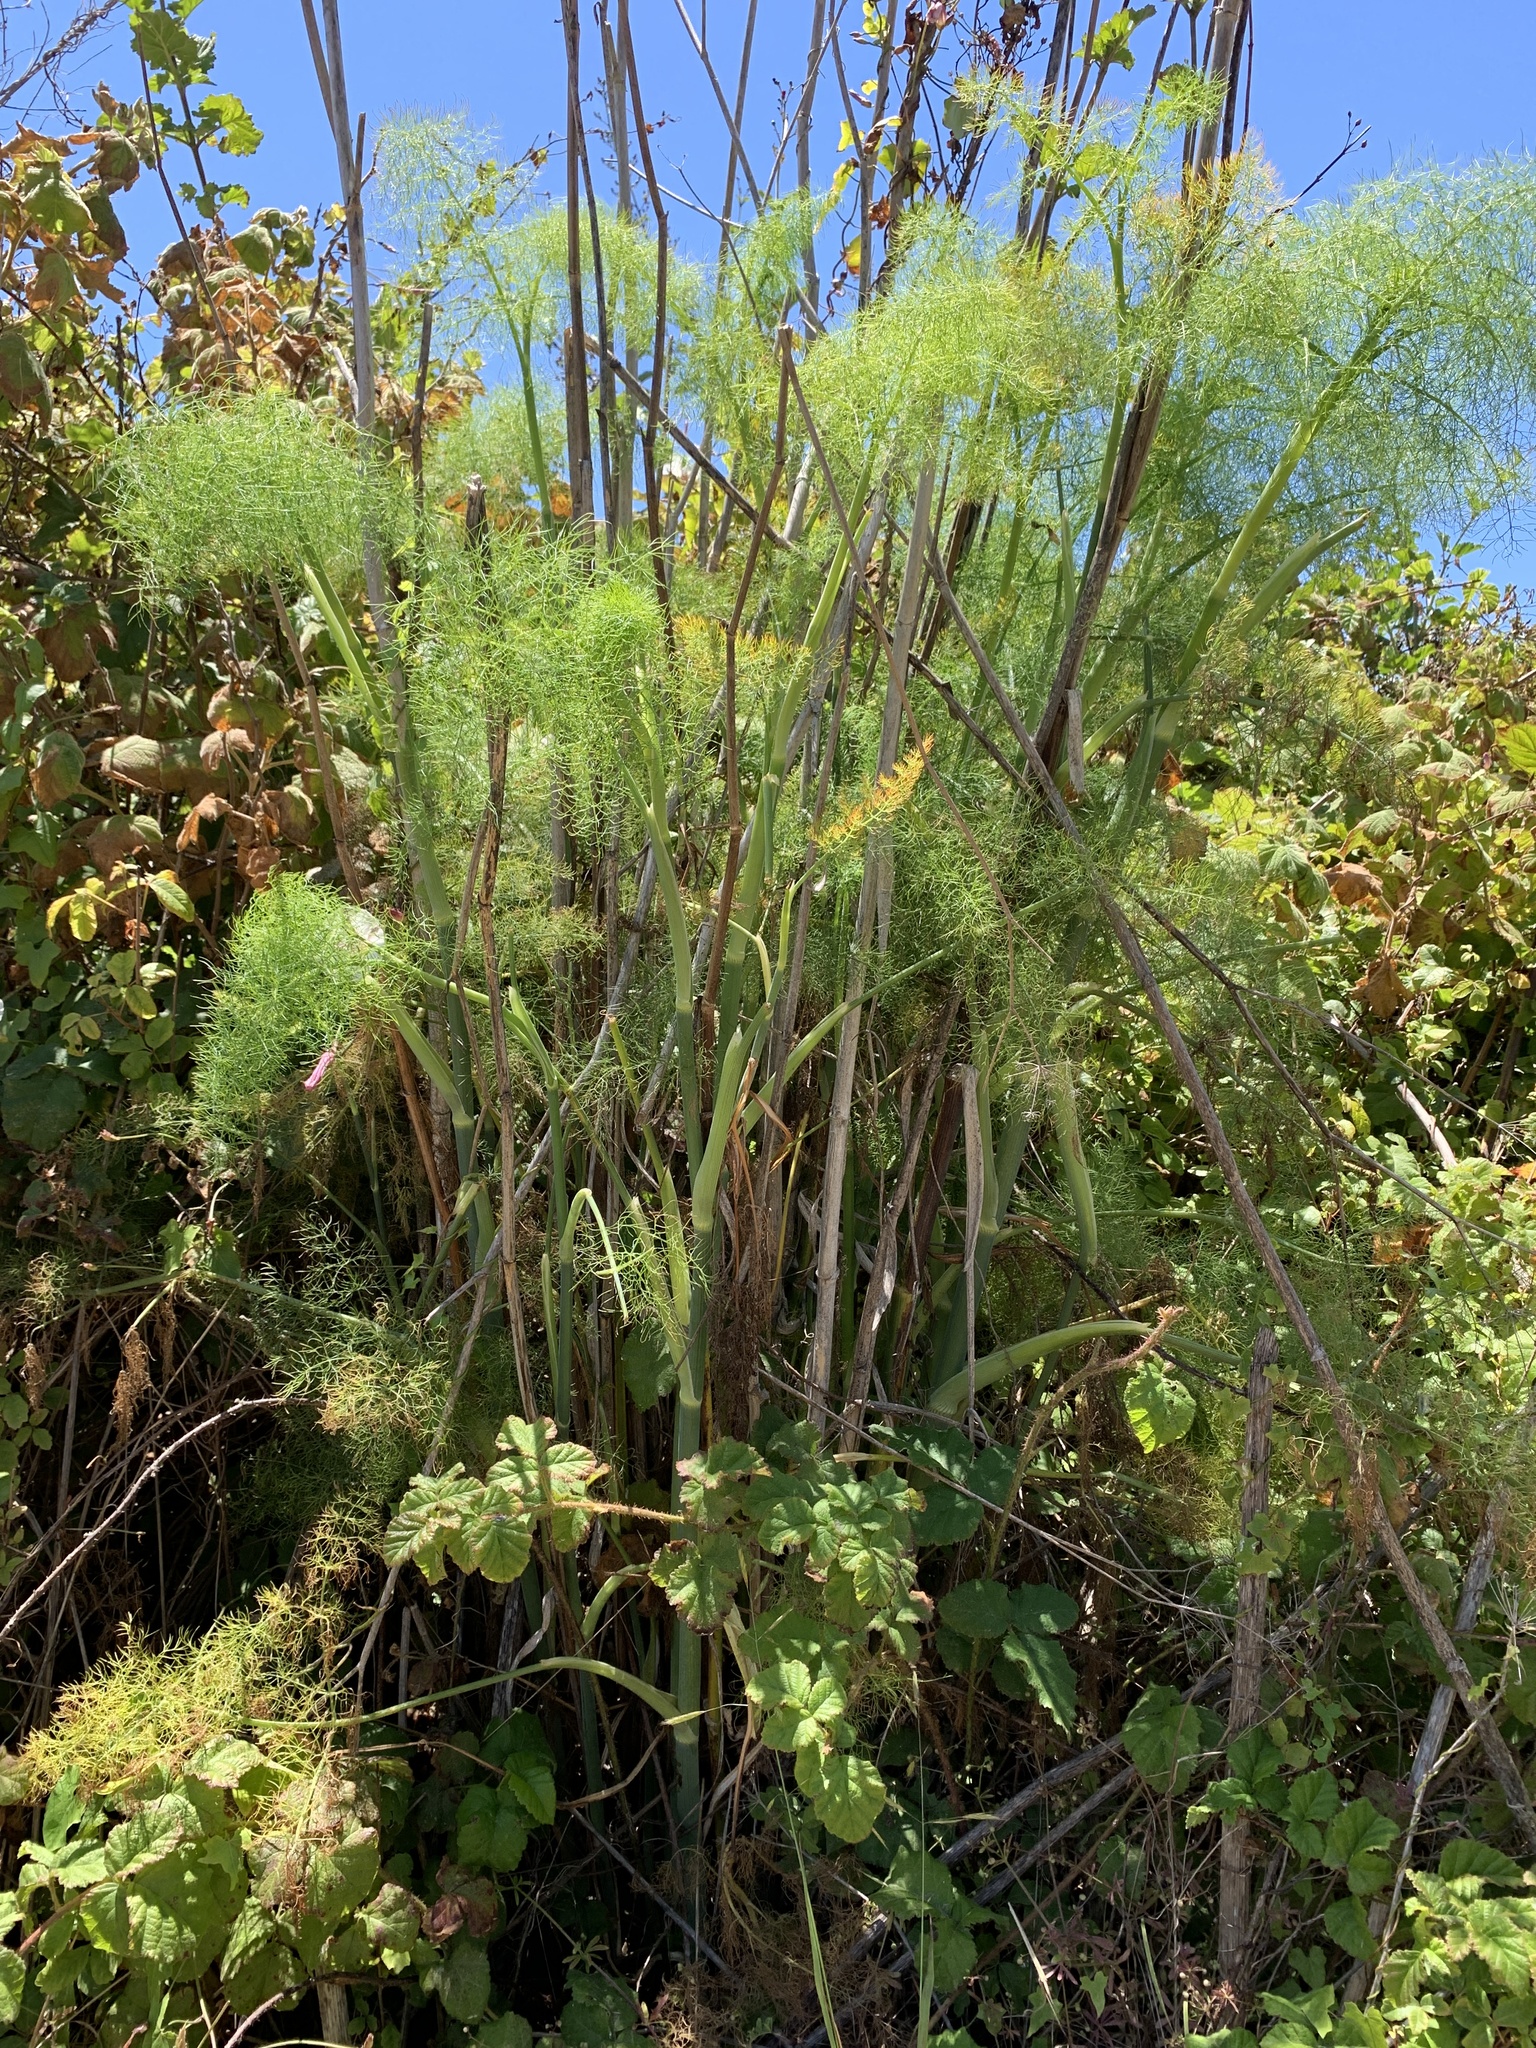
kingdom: Plantae
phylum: Tracheophyta
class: Magnoliopsida
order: Apiales
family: Apiaceae
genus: Foeniculum
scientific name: Foeniculum vulgare
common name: Fennel
